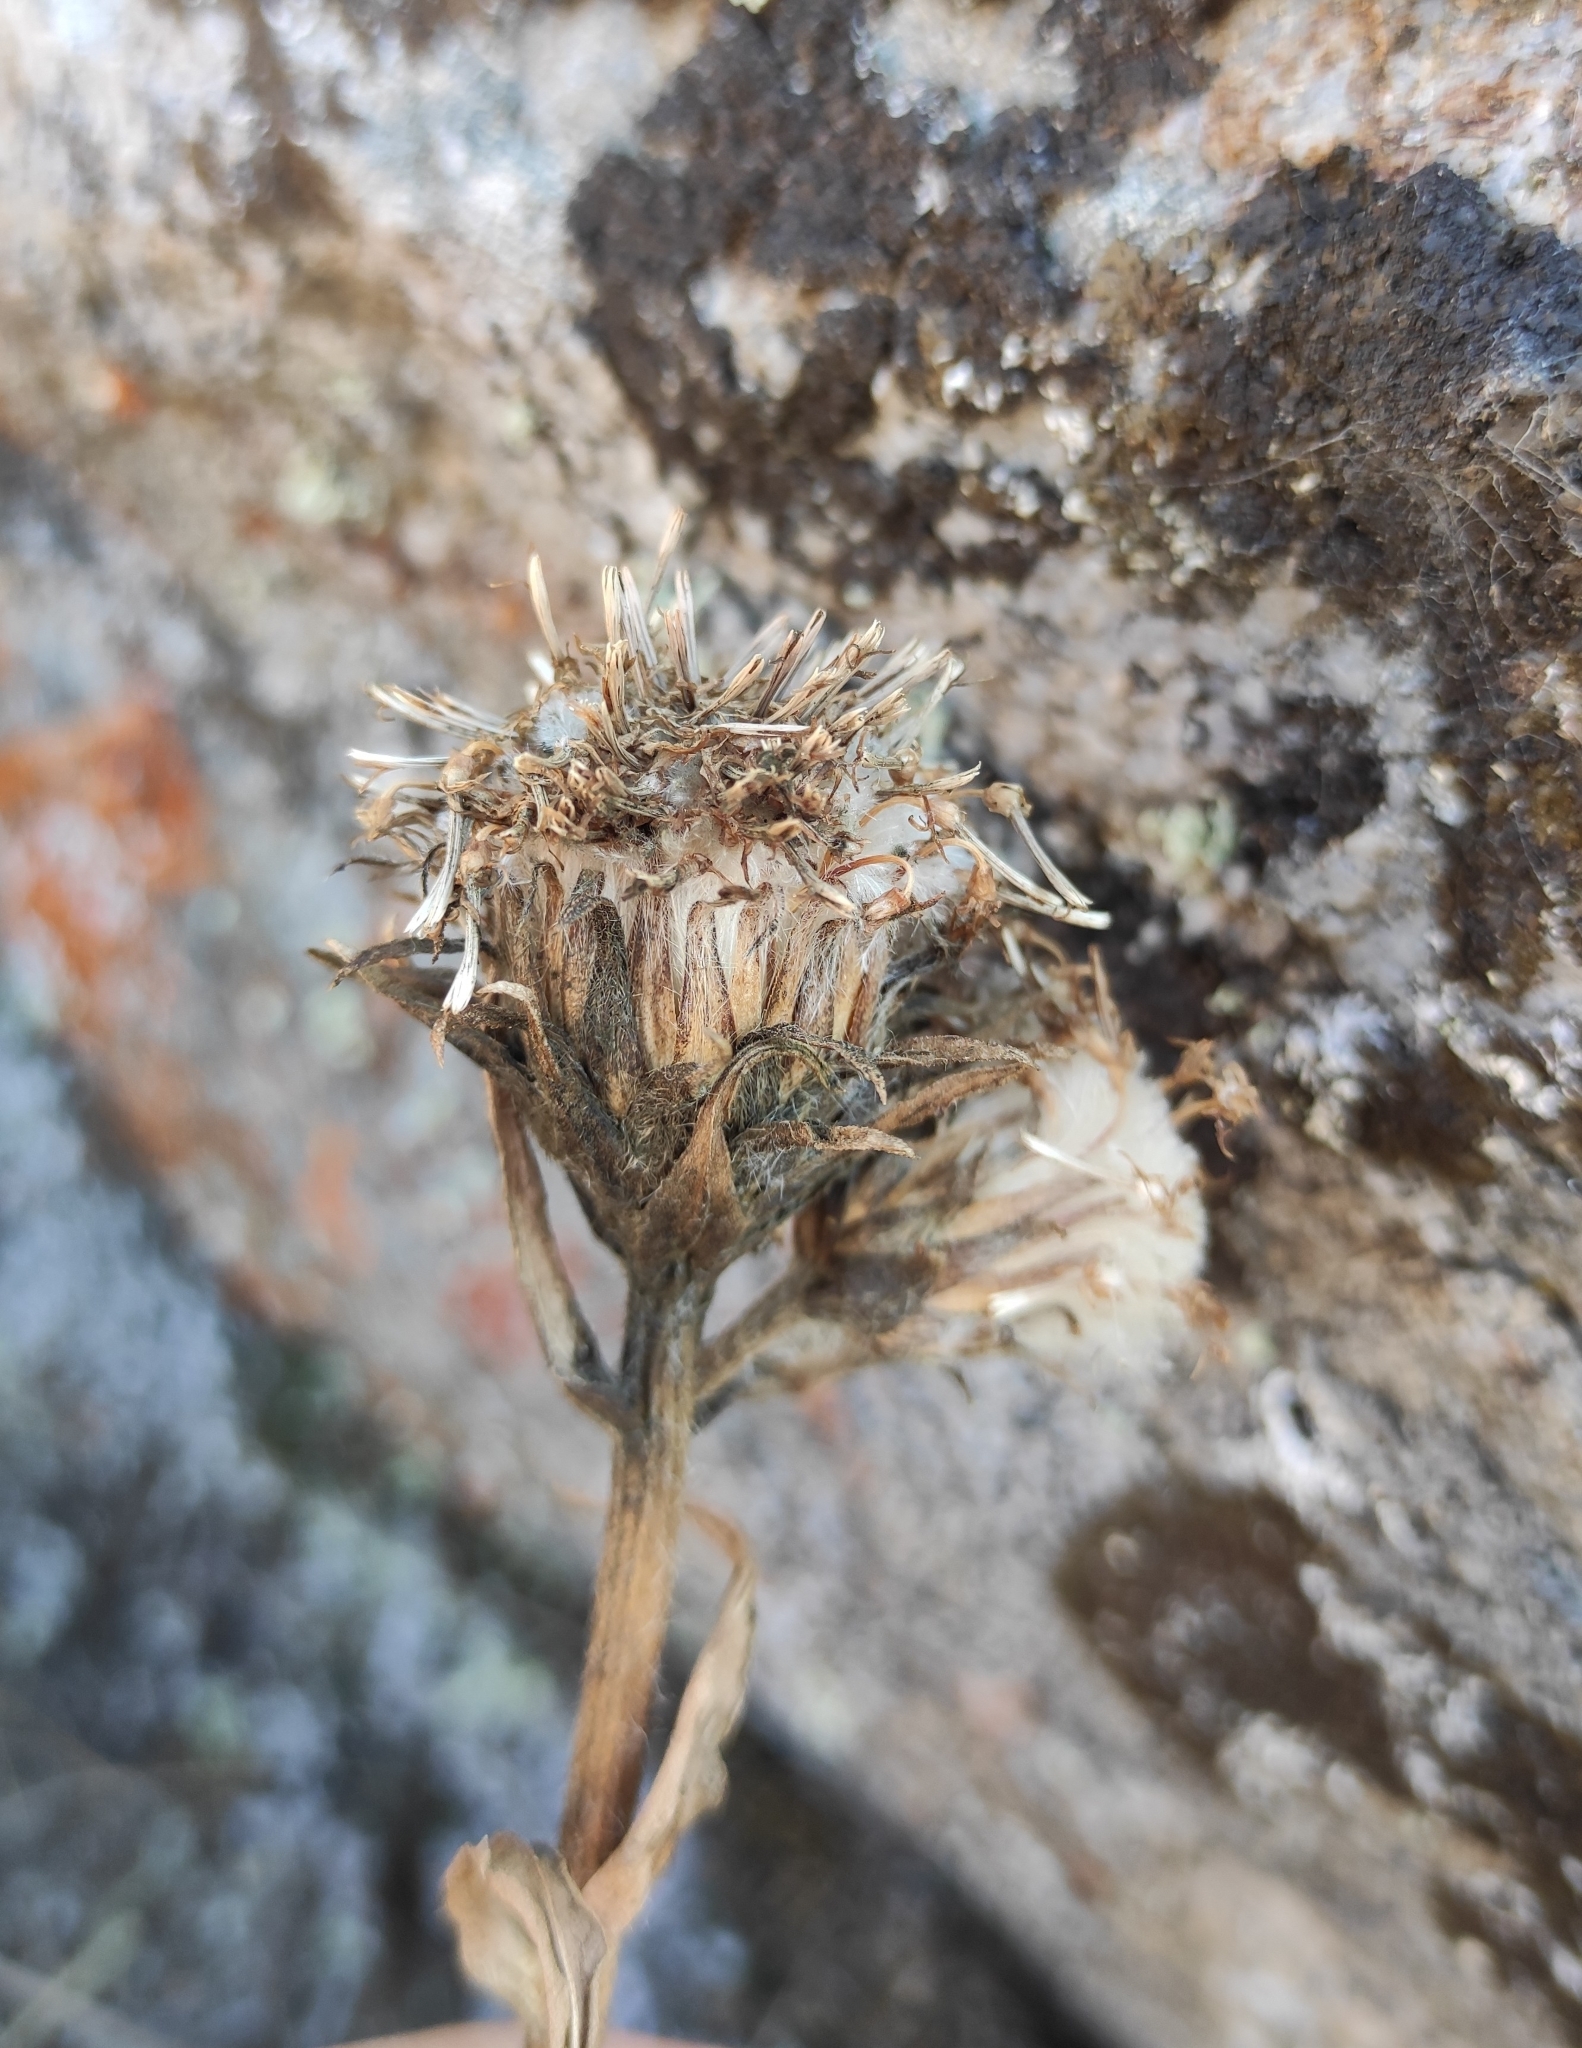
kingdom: Plantae
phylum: Tracheophyta
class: Magnoliopsida
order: Asterales
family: Asteraceae
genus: Saussurea
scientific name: Saussurea schanginiana
